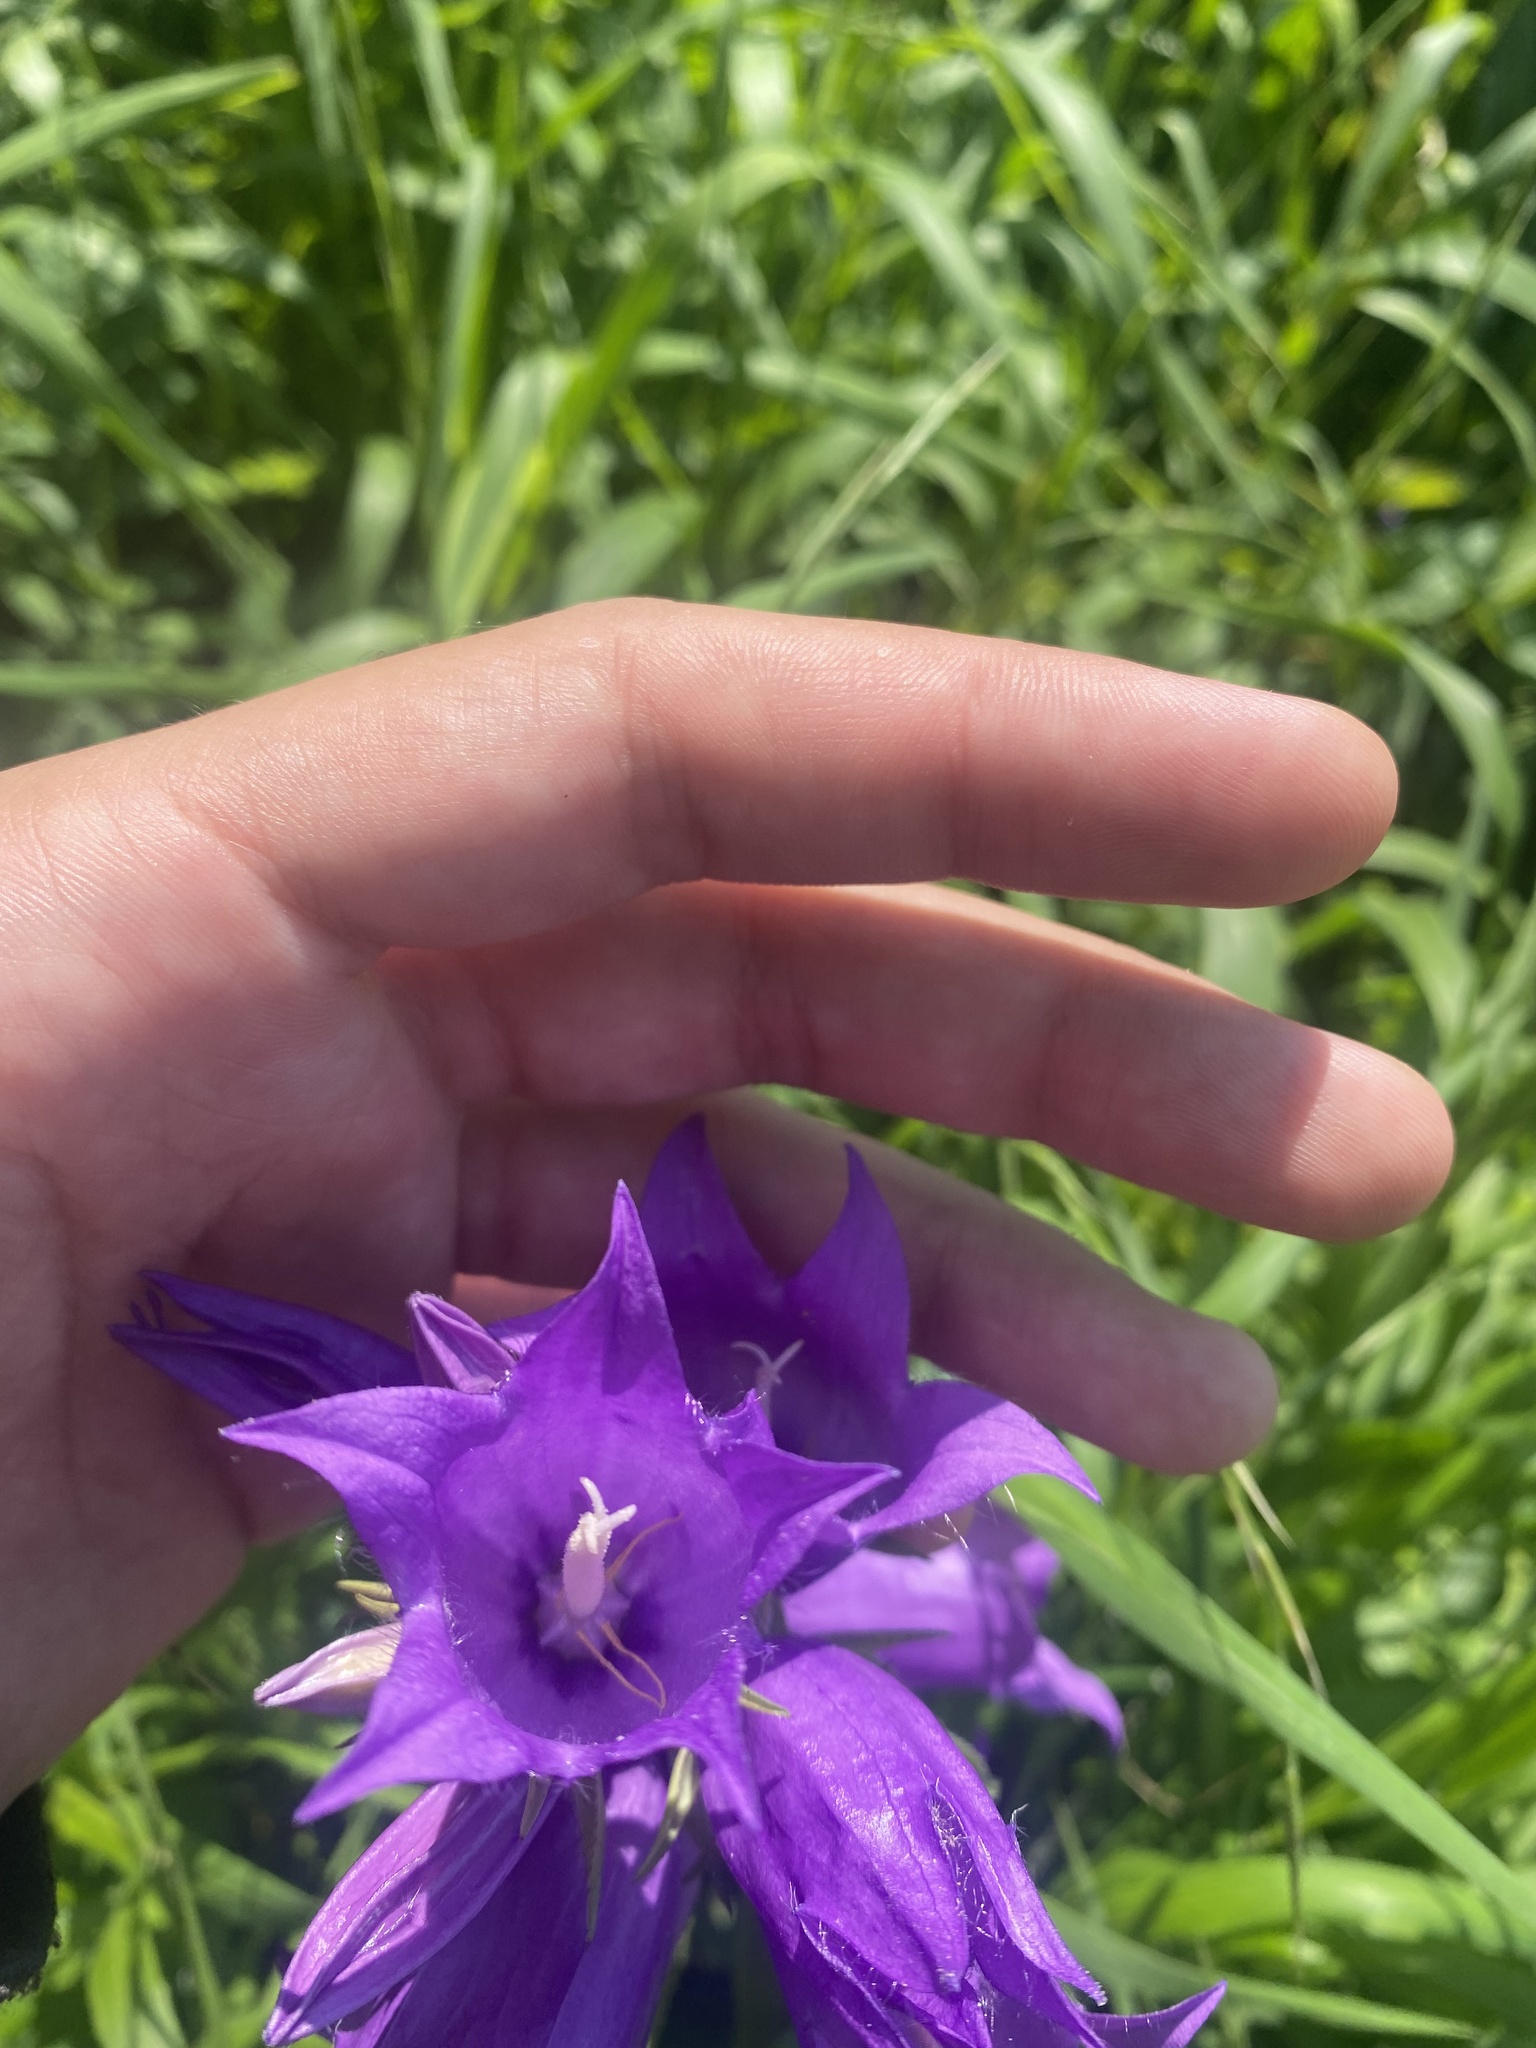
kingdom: Plantae
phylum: Tracheophyta
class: Magnoliopsida
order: Asterales
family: Campanulaceae
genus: Campanula
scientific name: Campanula latifolia
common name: Giant bellflower
